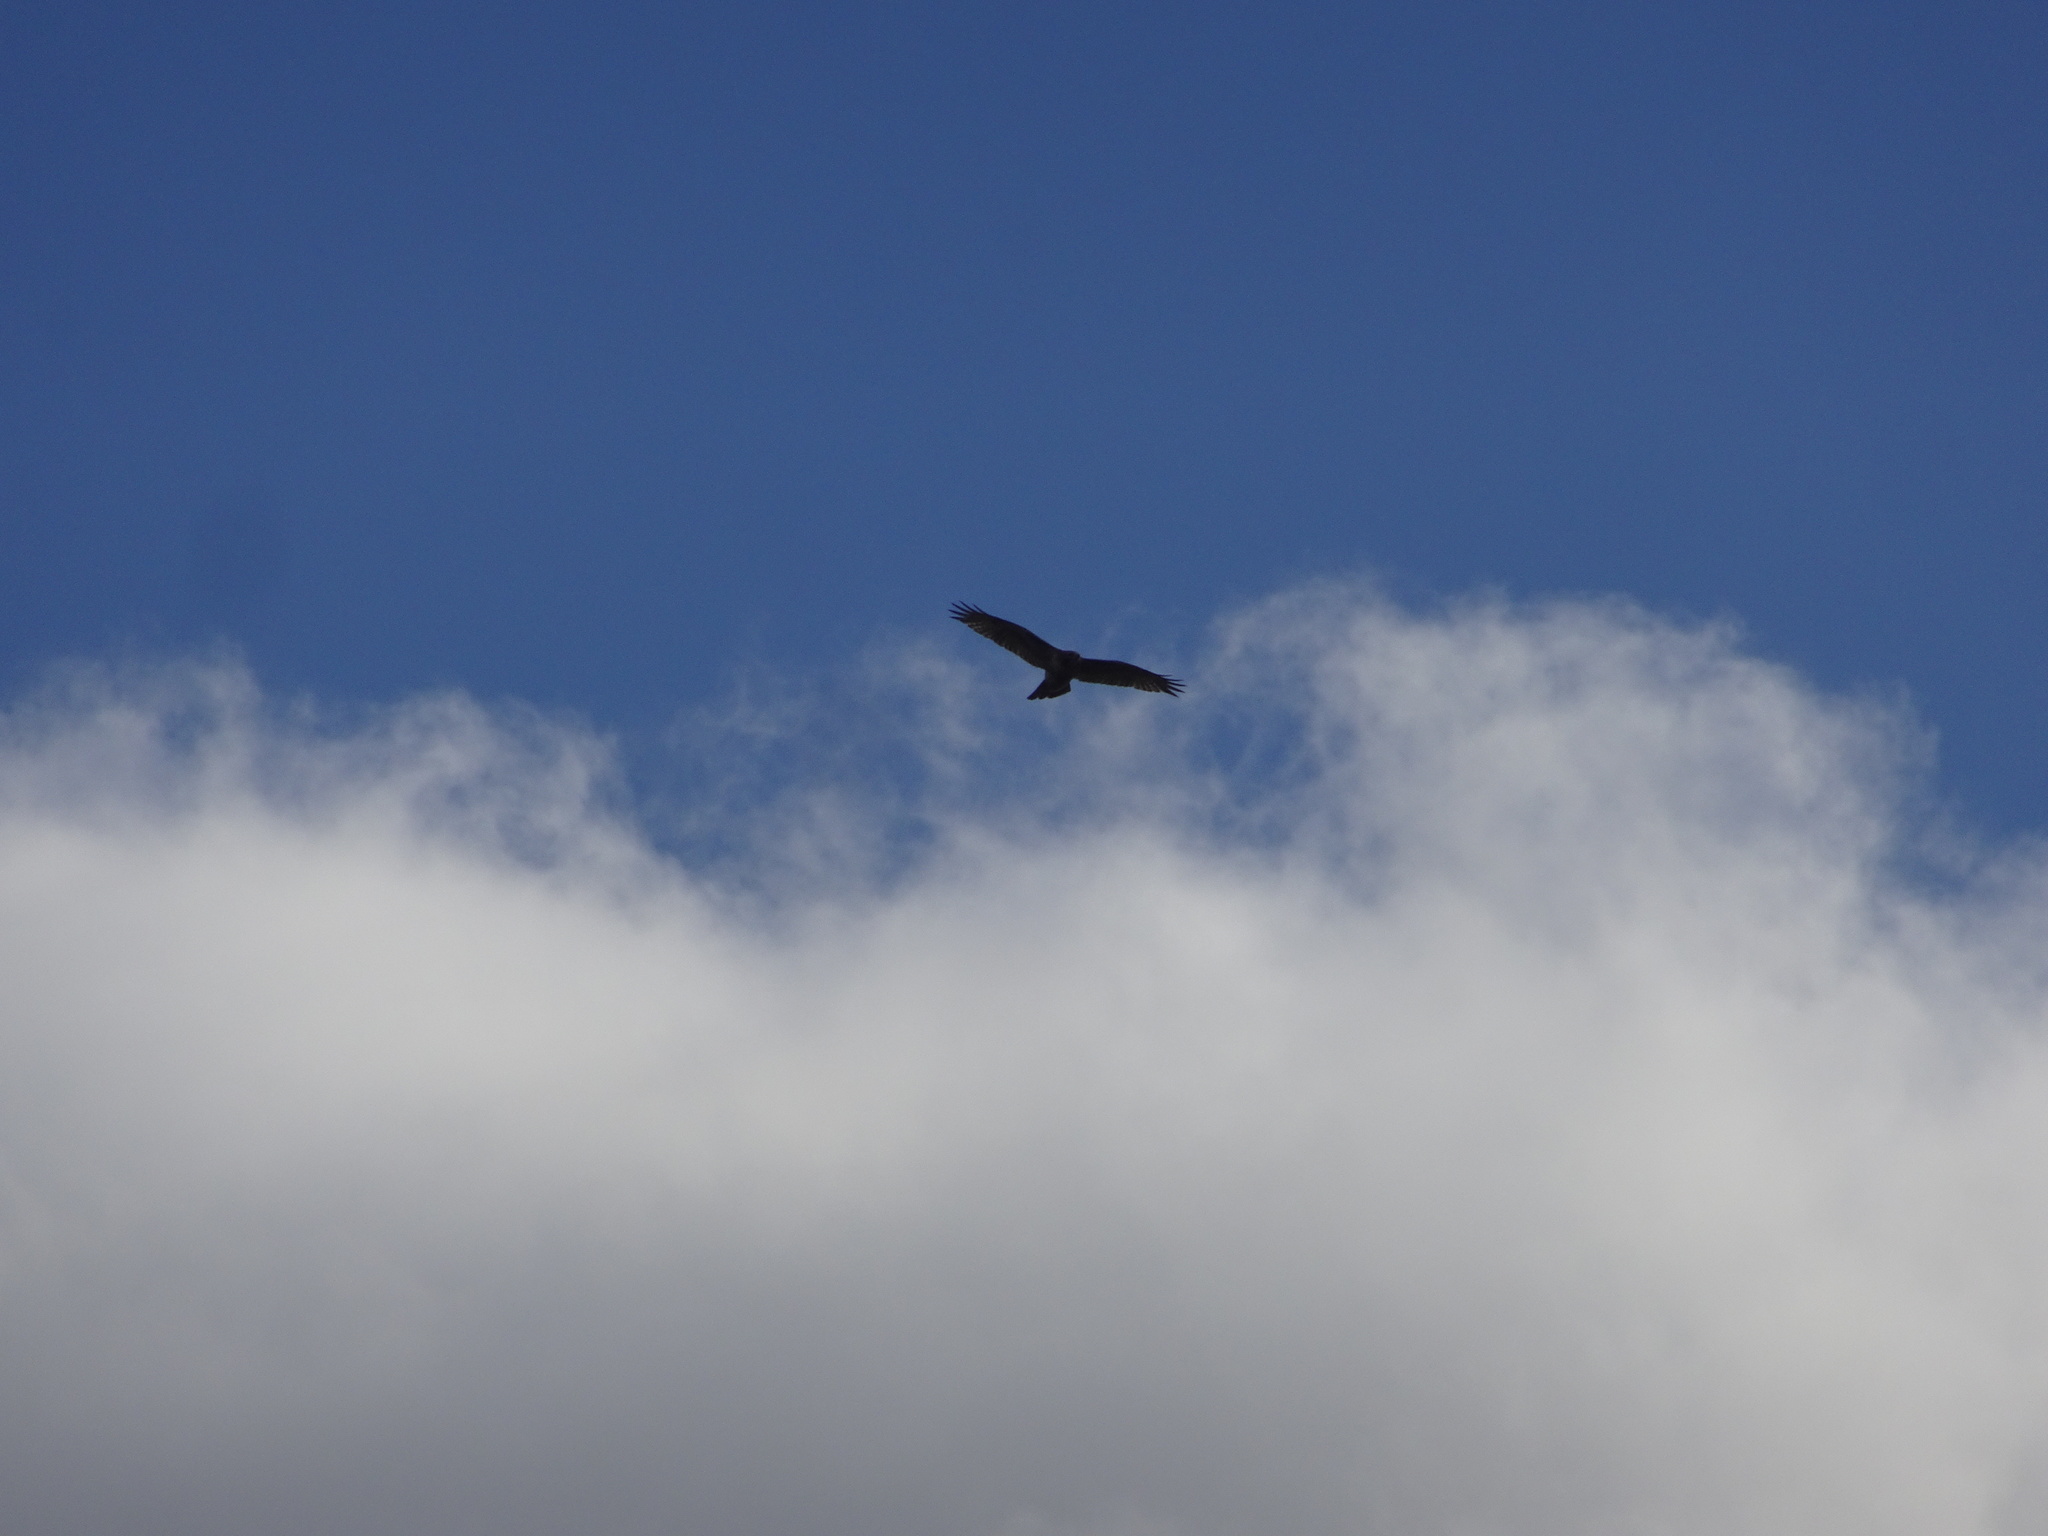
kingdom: Animalia
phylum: Chordata
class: Aves
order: Accipitriformes
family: Accipitridae
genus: Buteo
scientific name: Buteo jamaicensis
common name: Red-tailed hawk
